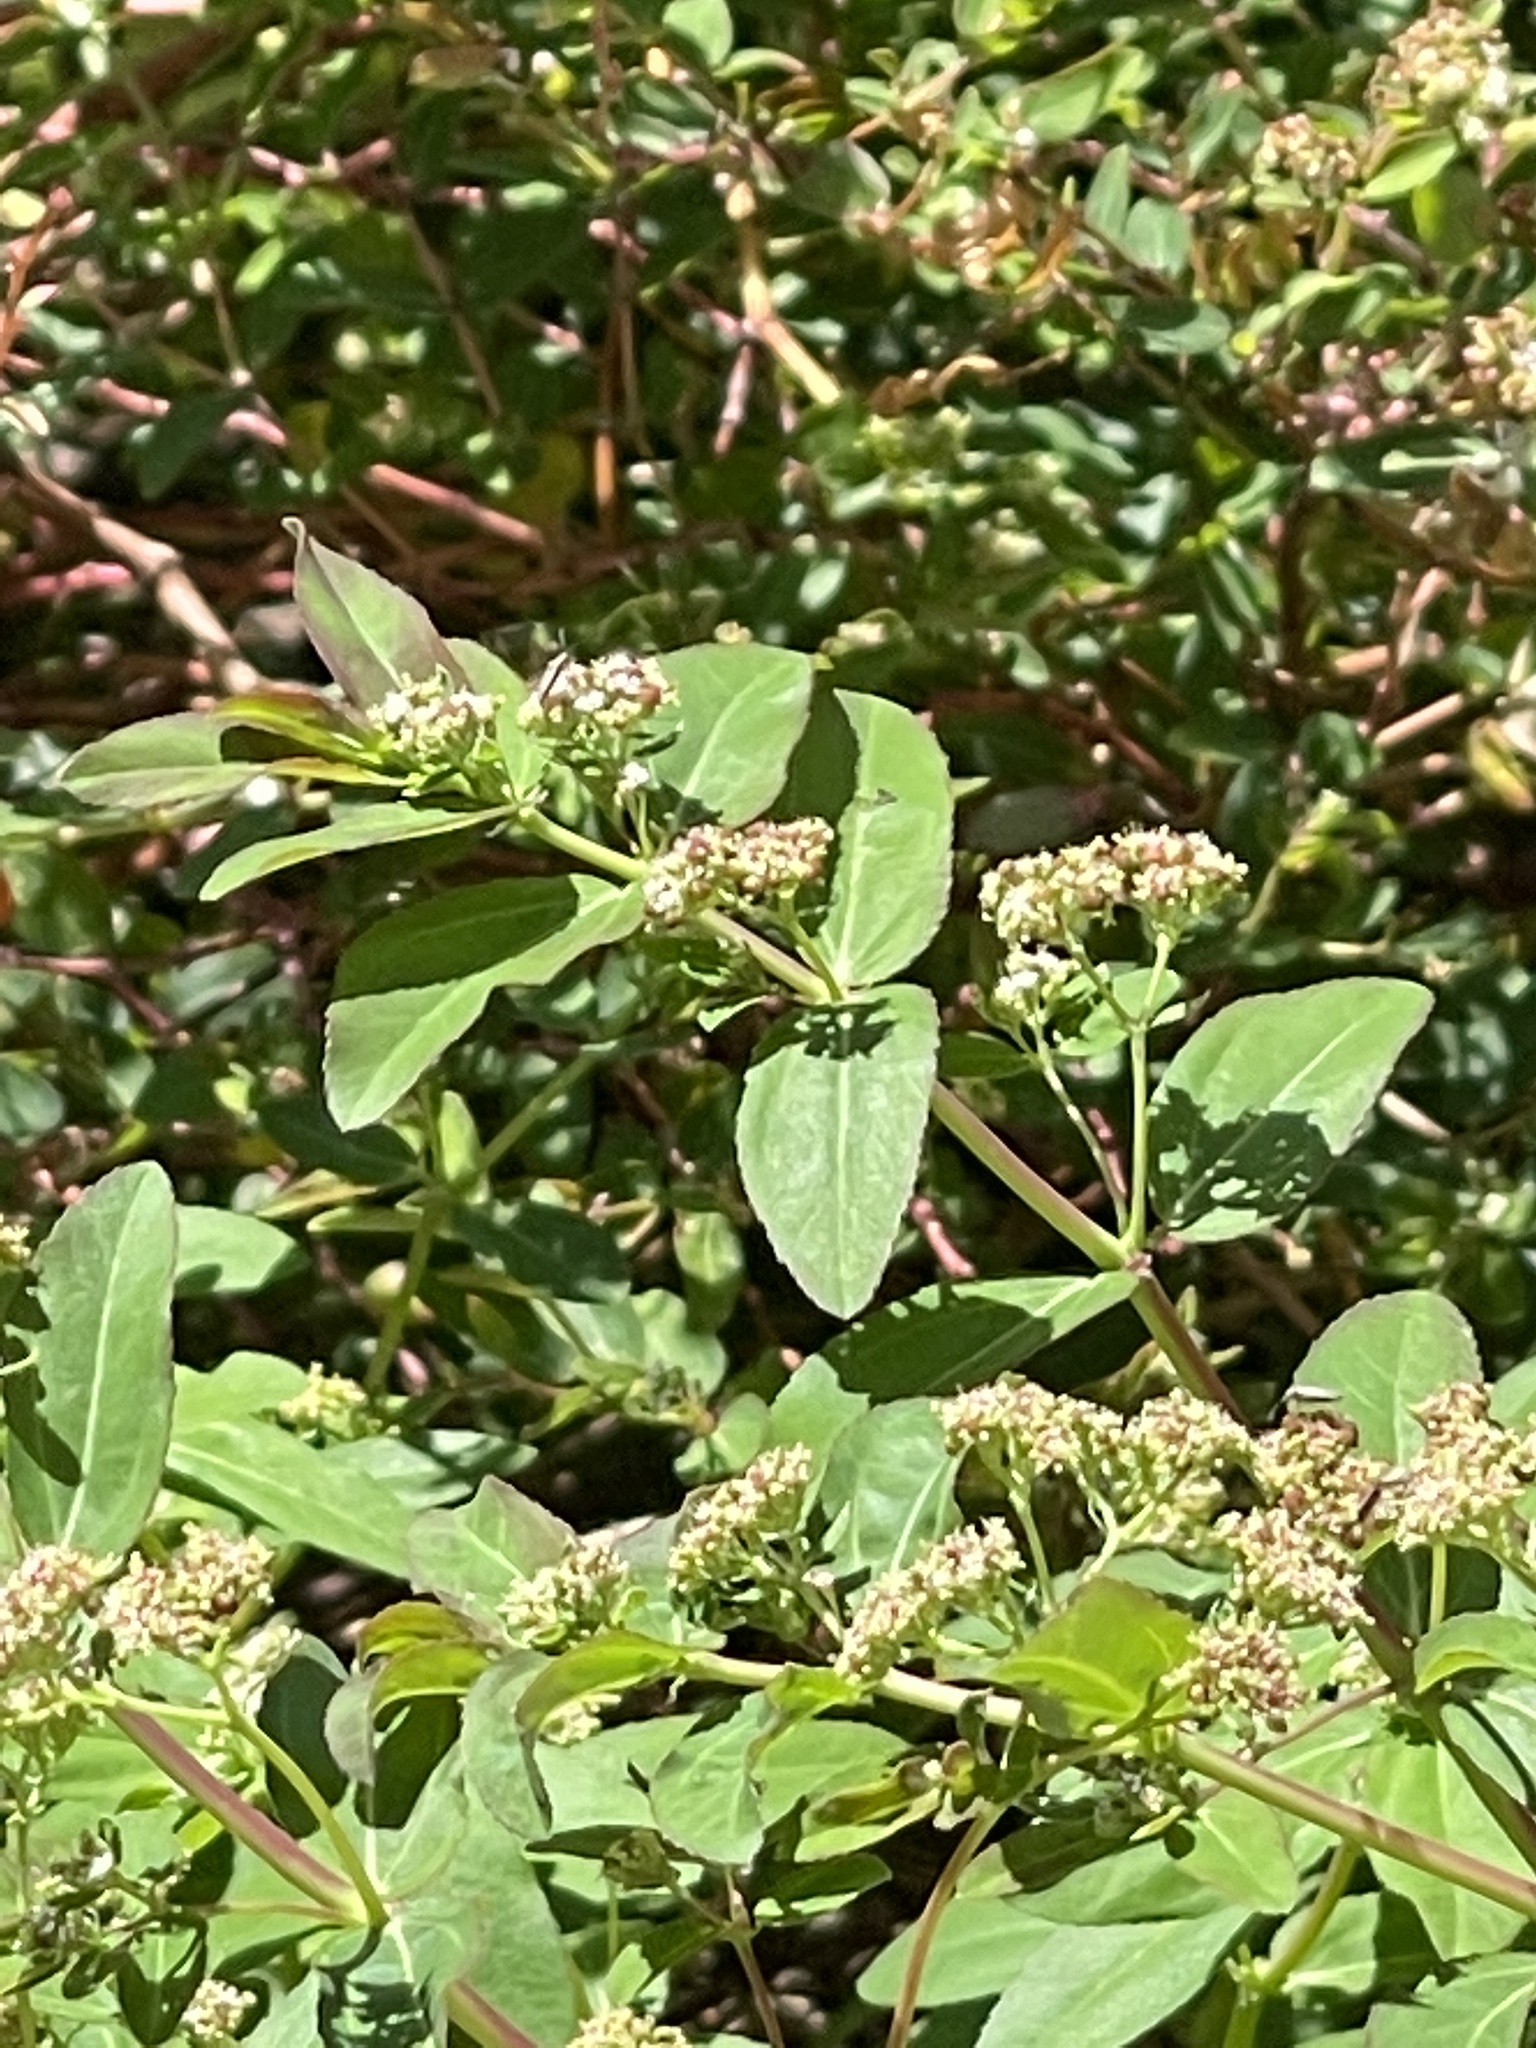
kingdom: Plantae
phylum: Tracheophyta
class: Magnoliopsida
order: Malpighiales
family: Euphorbiaceae
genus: Euphorbia
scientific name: Euphorbia hypericifolia
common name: Graceful sandmat
